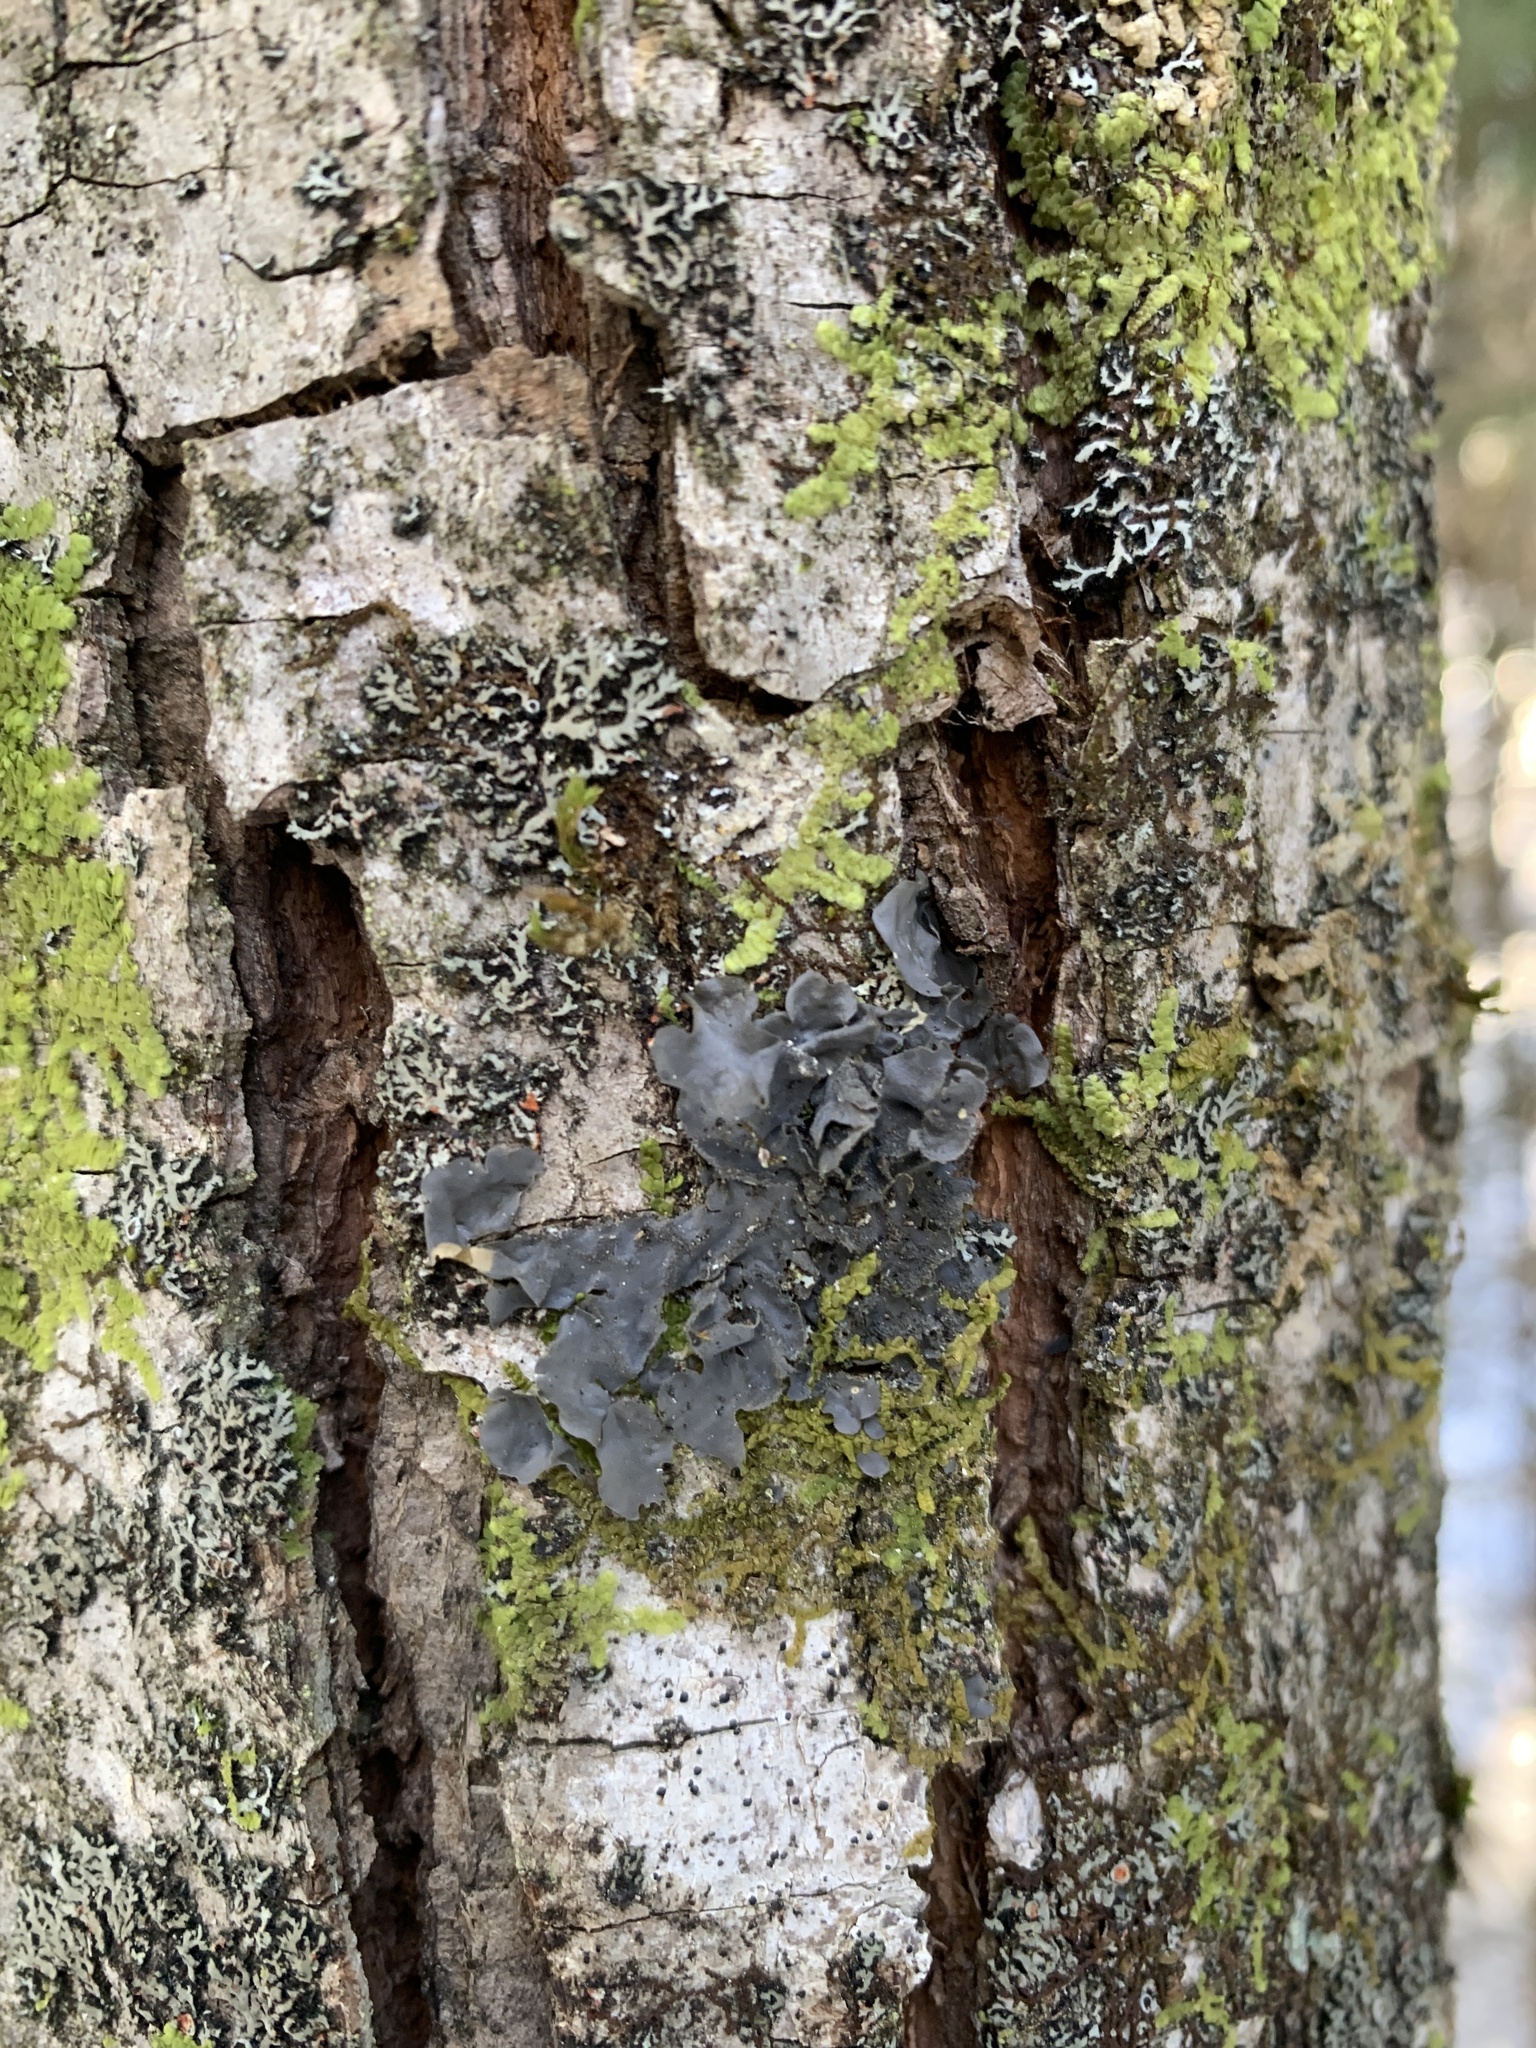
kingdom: Fungi
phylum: Ascomycota
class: Lecanoromycetes
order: Peltigerales
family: Collemataceae
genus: Leptogium
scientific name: Leptogium cyanescens
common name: Blue jellyskin
